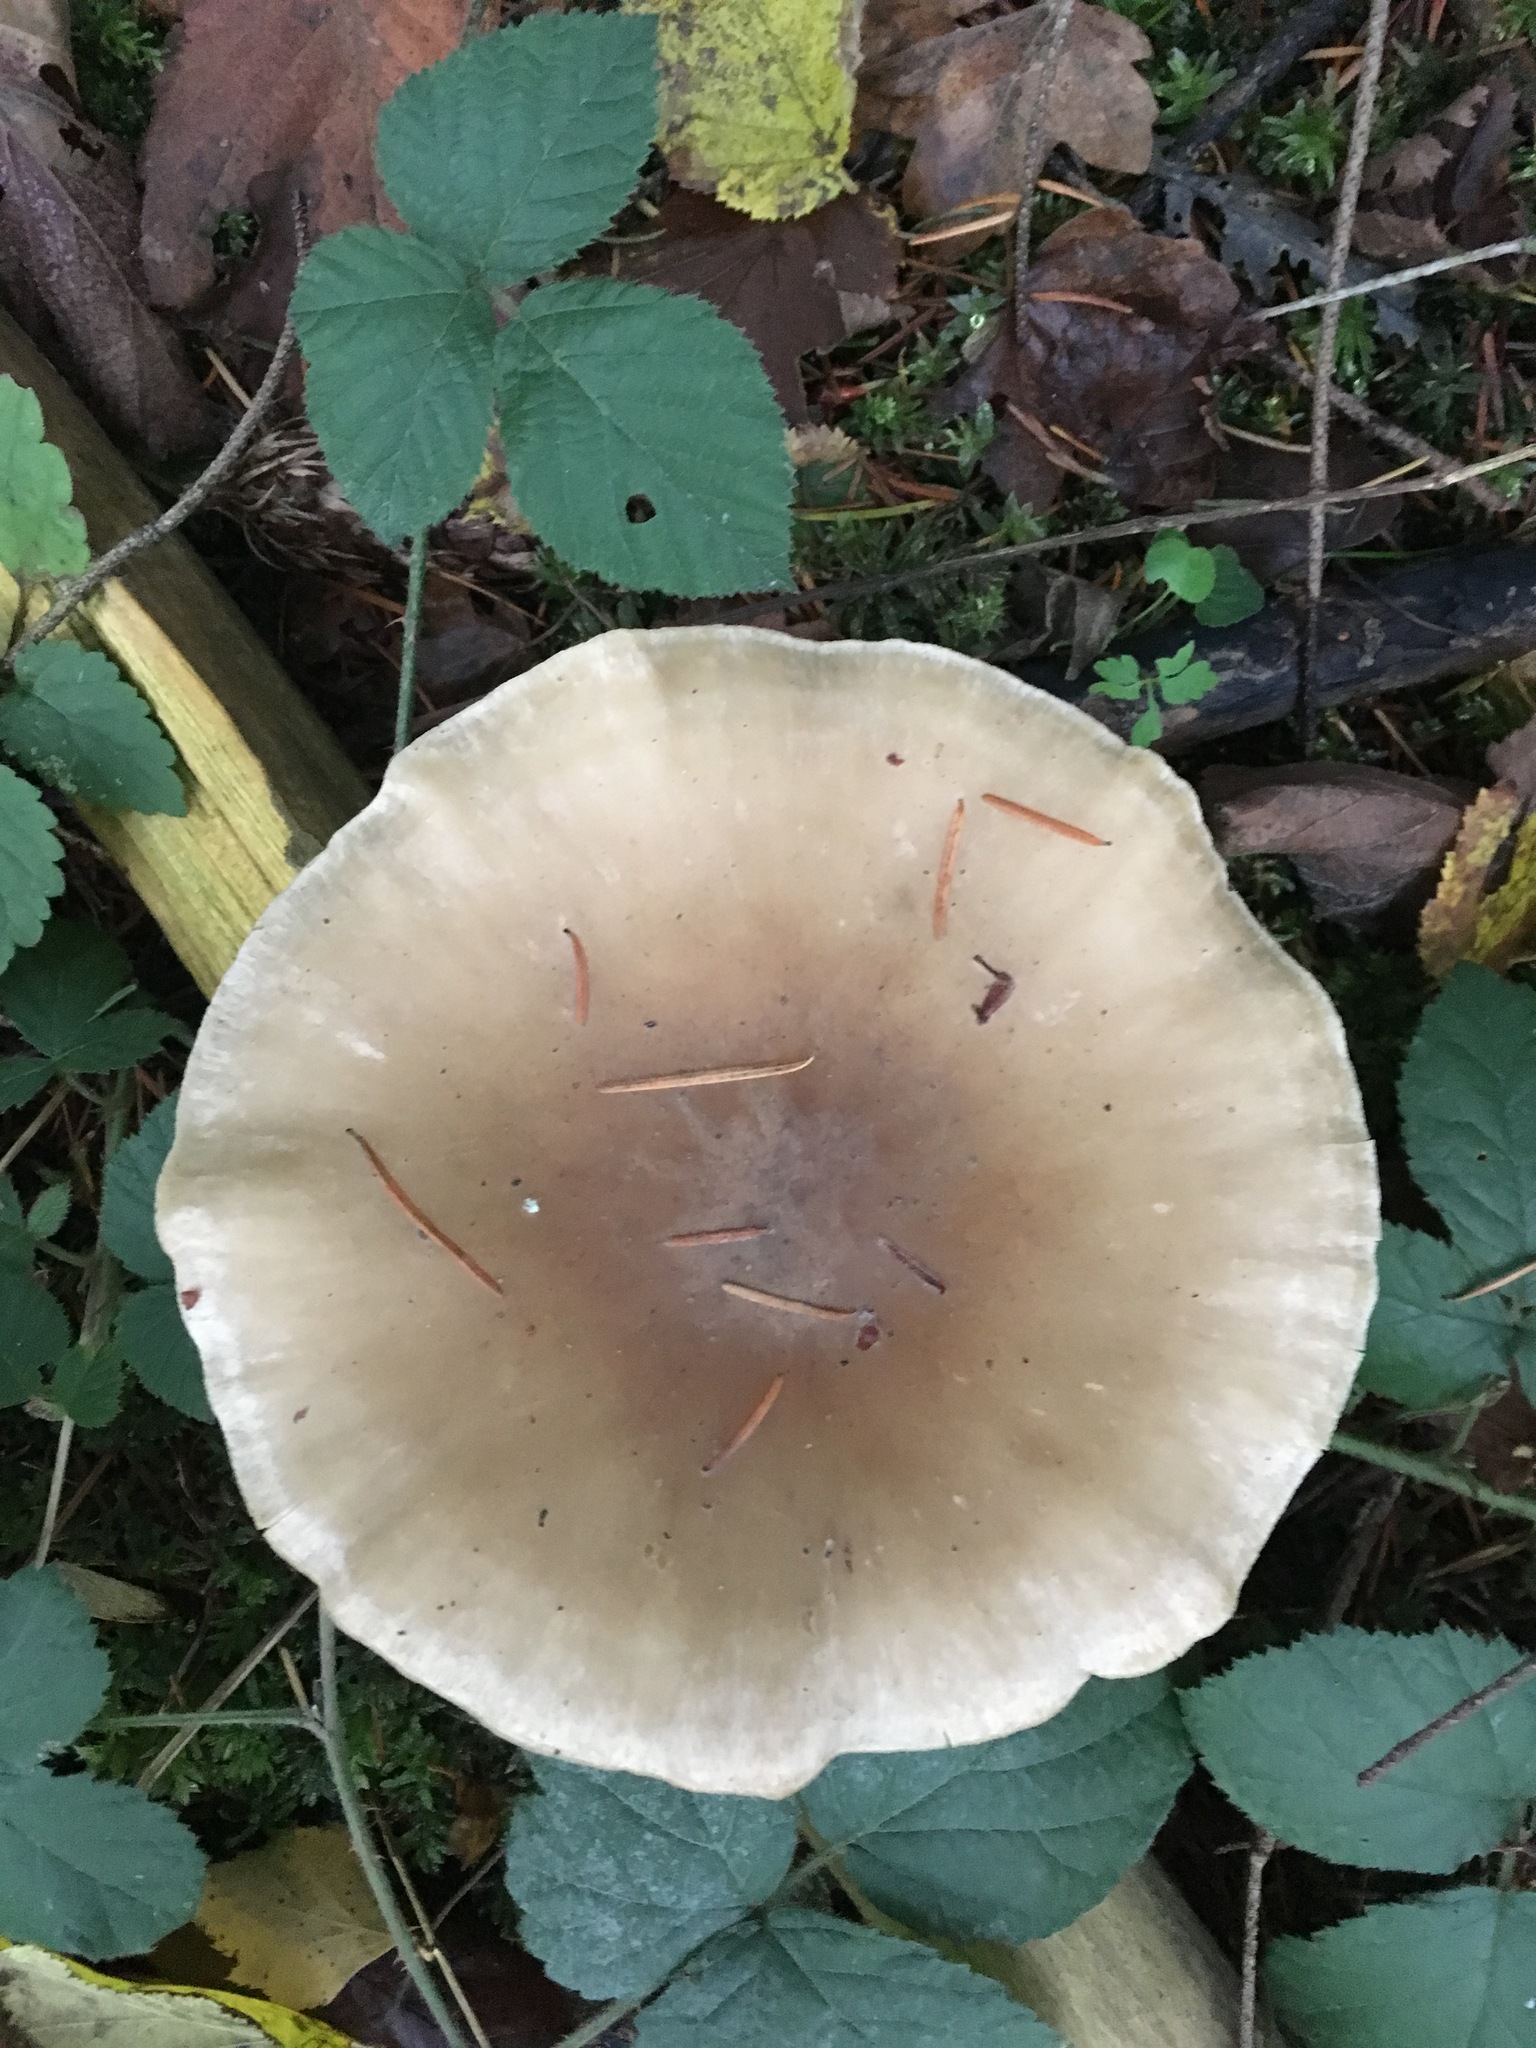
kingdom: Fungi
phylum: Basidiomycota
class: Agaricomycetes
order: Agaricales
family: Tricholomataceae
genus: Clitocybe
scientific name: Clitocybe nebularis
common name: Clouded agaric
